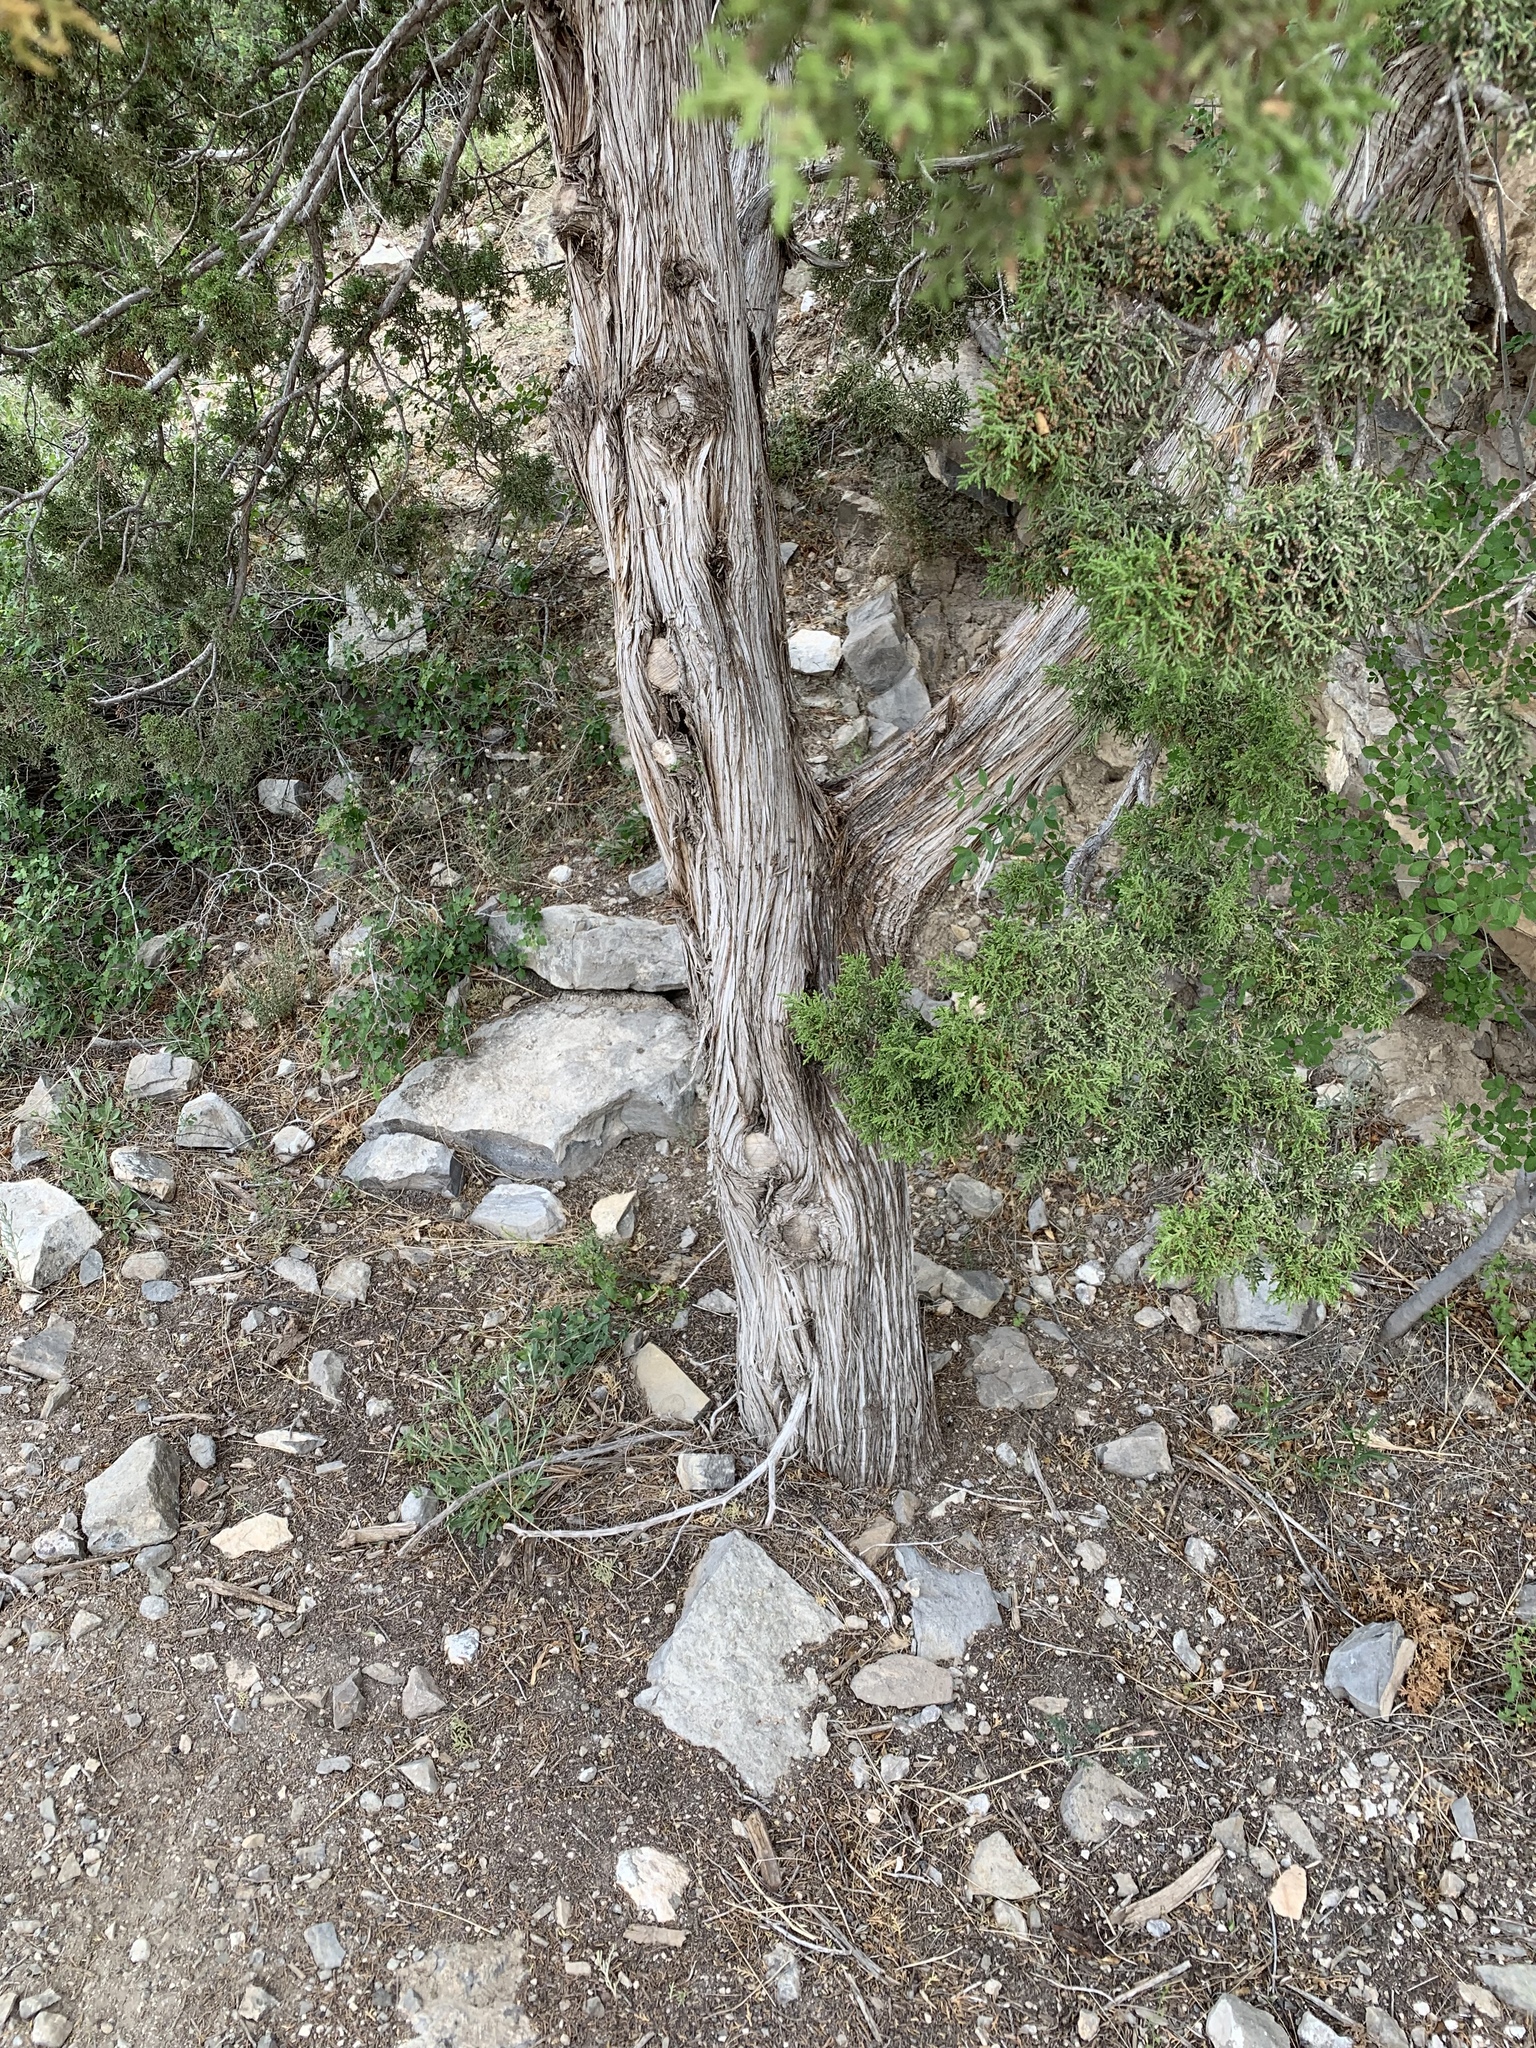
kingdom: Plantae
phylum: Tracheophyta
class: Pinopsida
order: Pinales
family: Cupressaceae
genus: Juniperus
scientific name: Juniperus monosperma
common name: One-seed juniper
